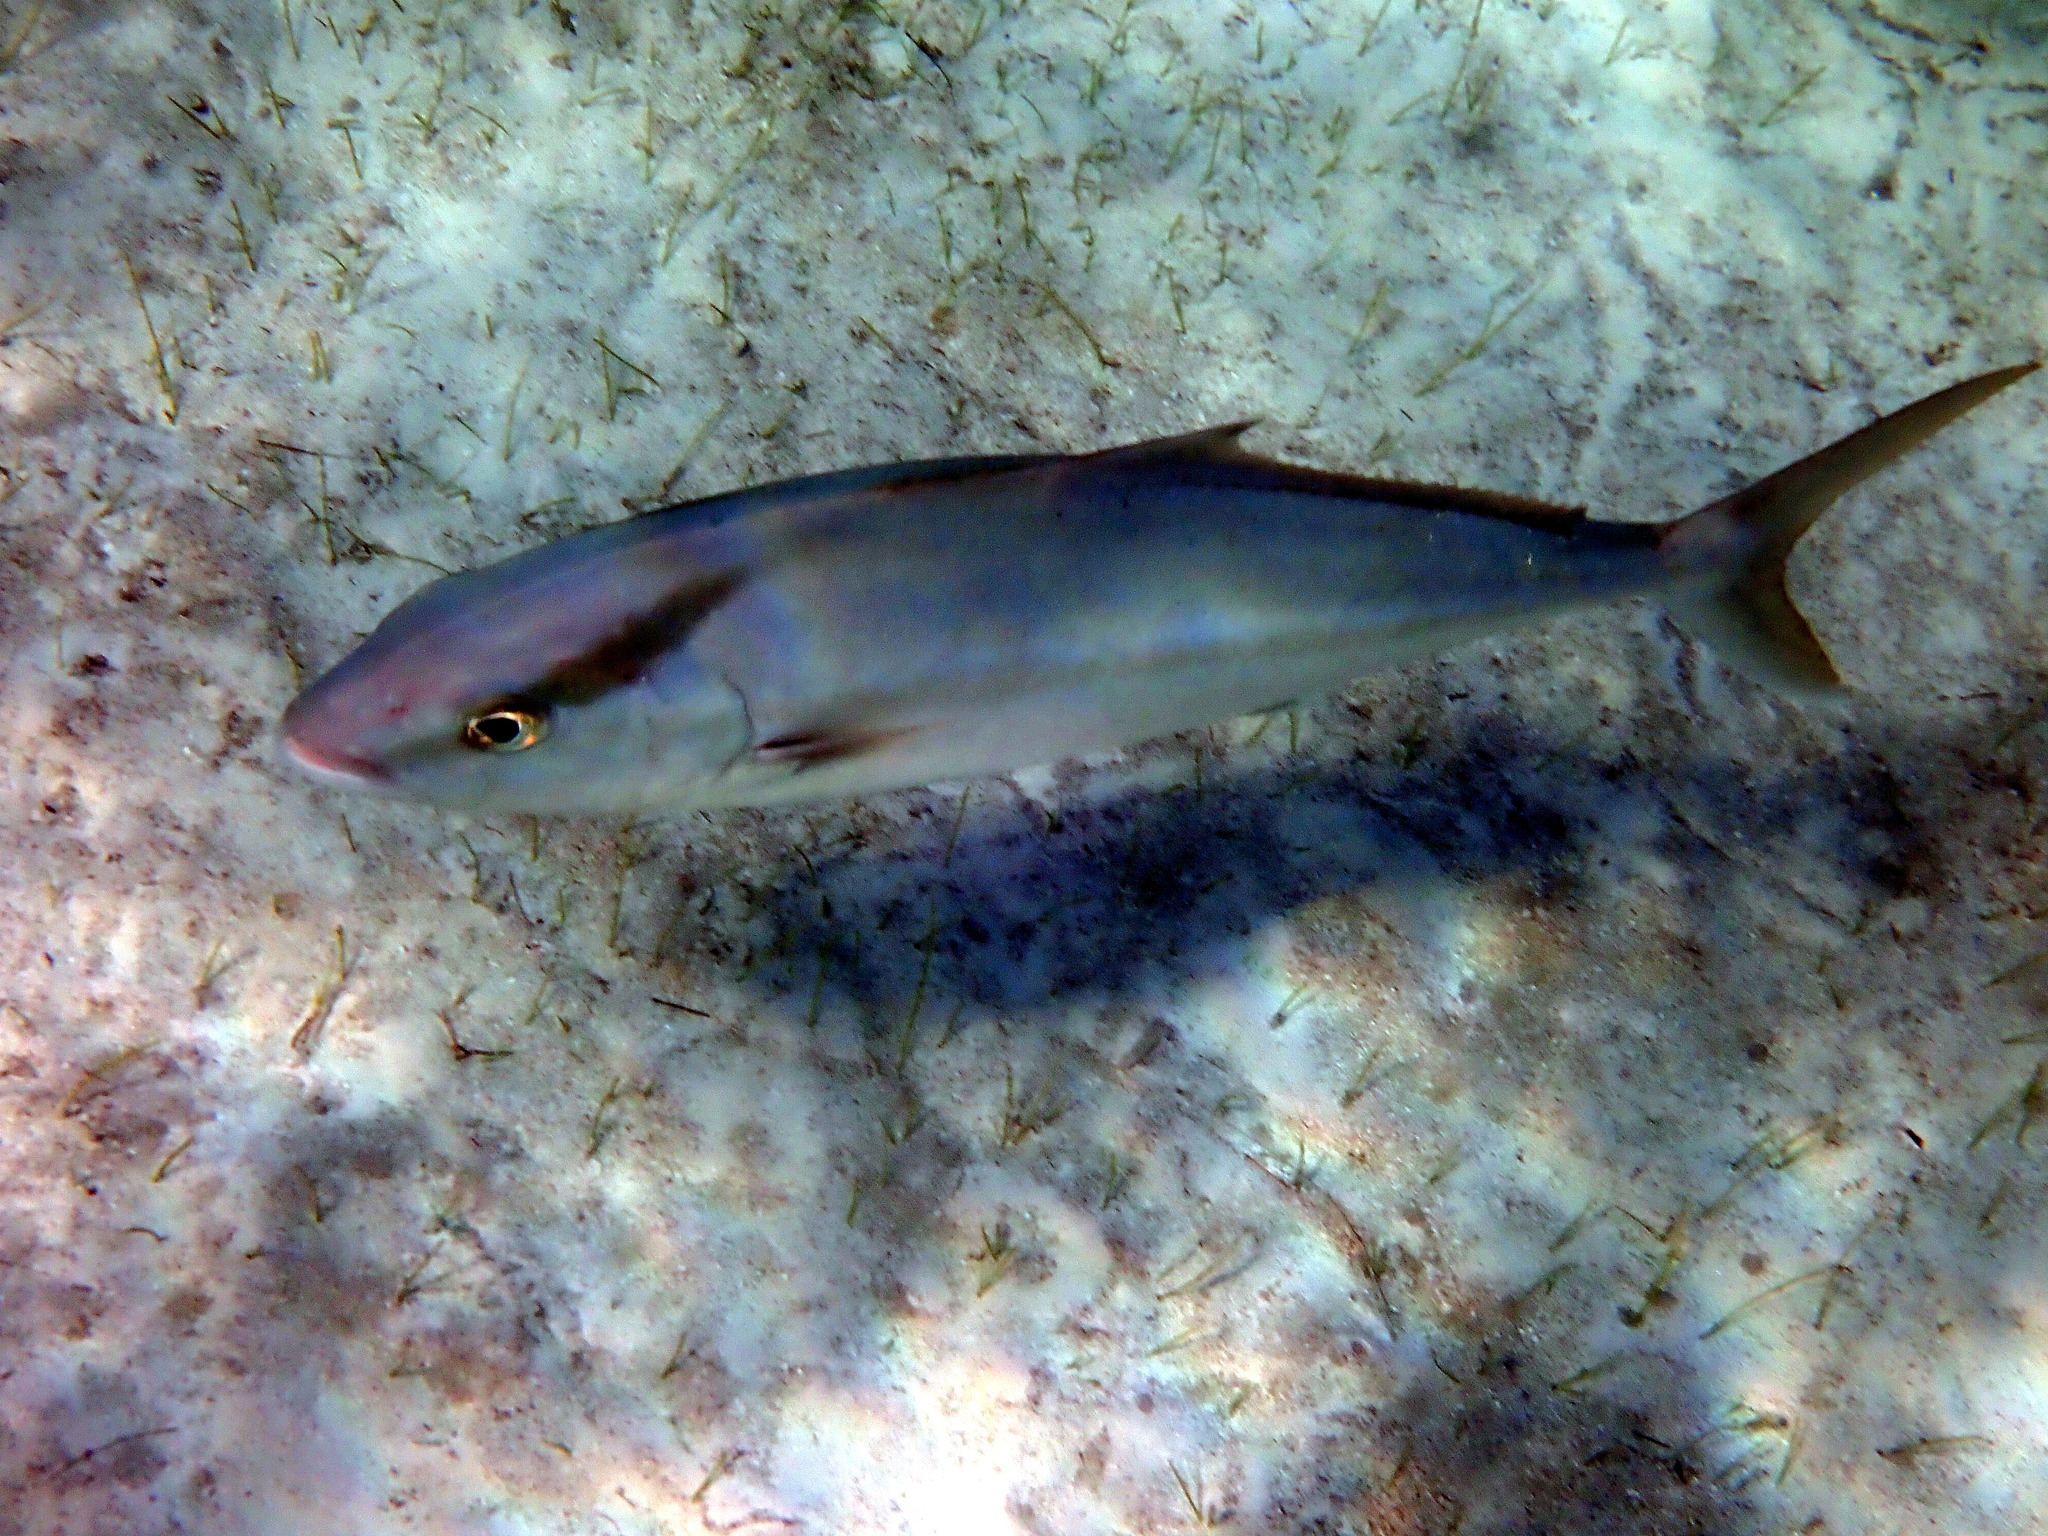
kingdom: Animalia
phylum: Chordata
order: Perciformes
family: Carangidae
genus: Seriola
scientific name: Seriola rivoliana
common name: Almaco jack
